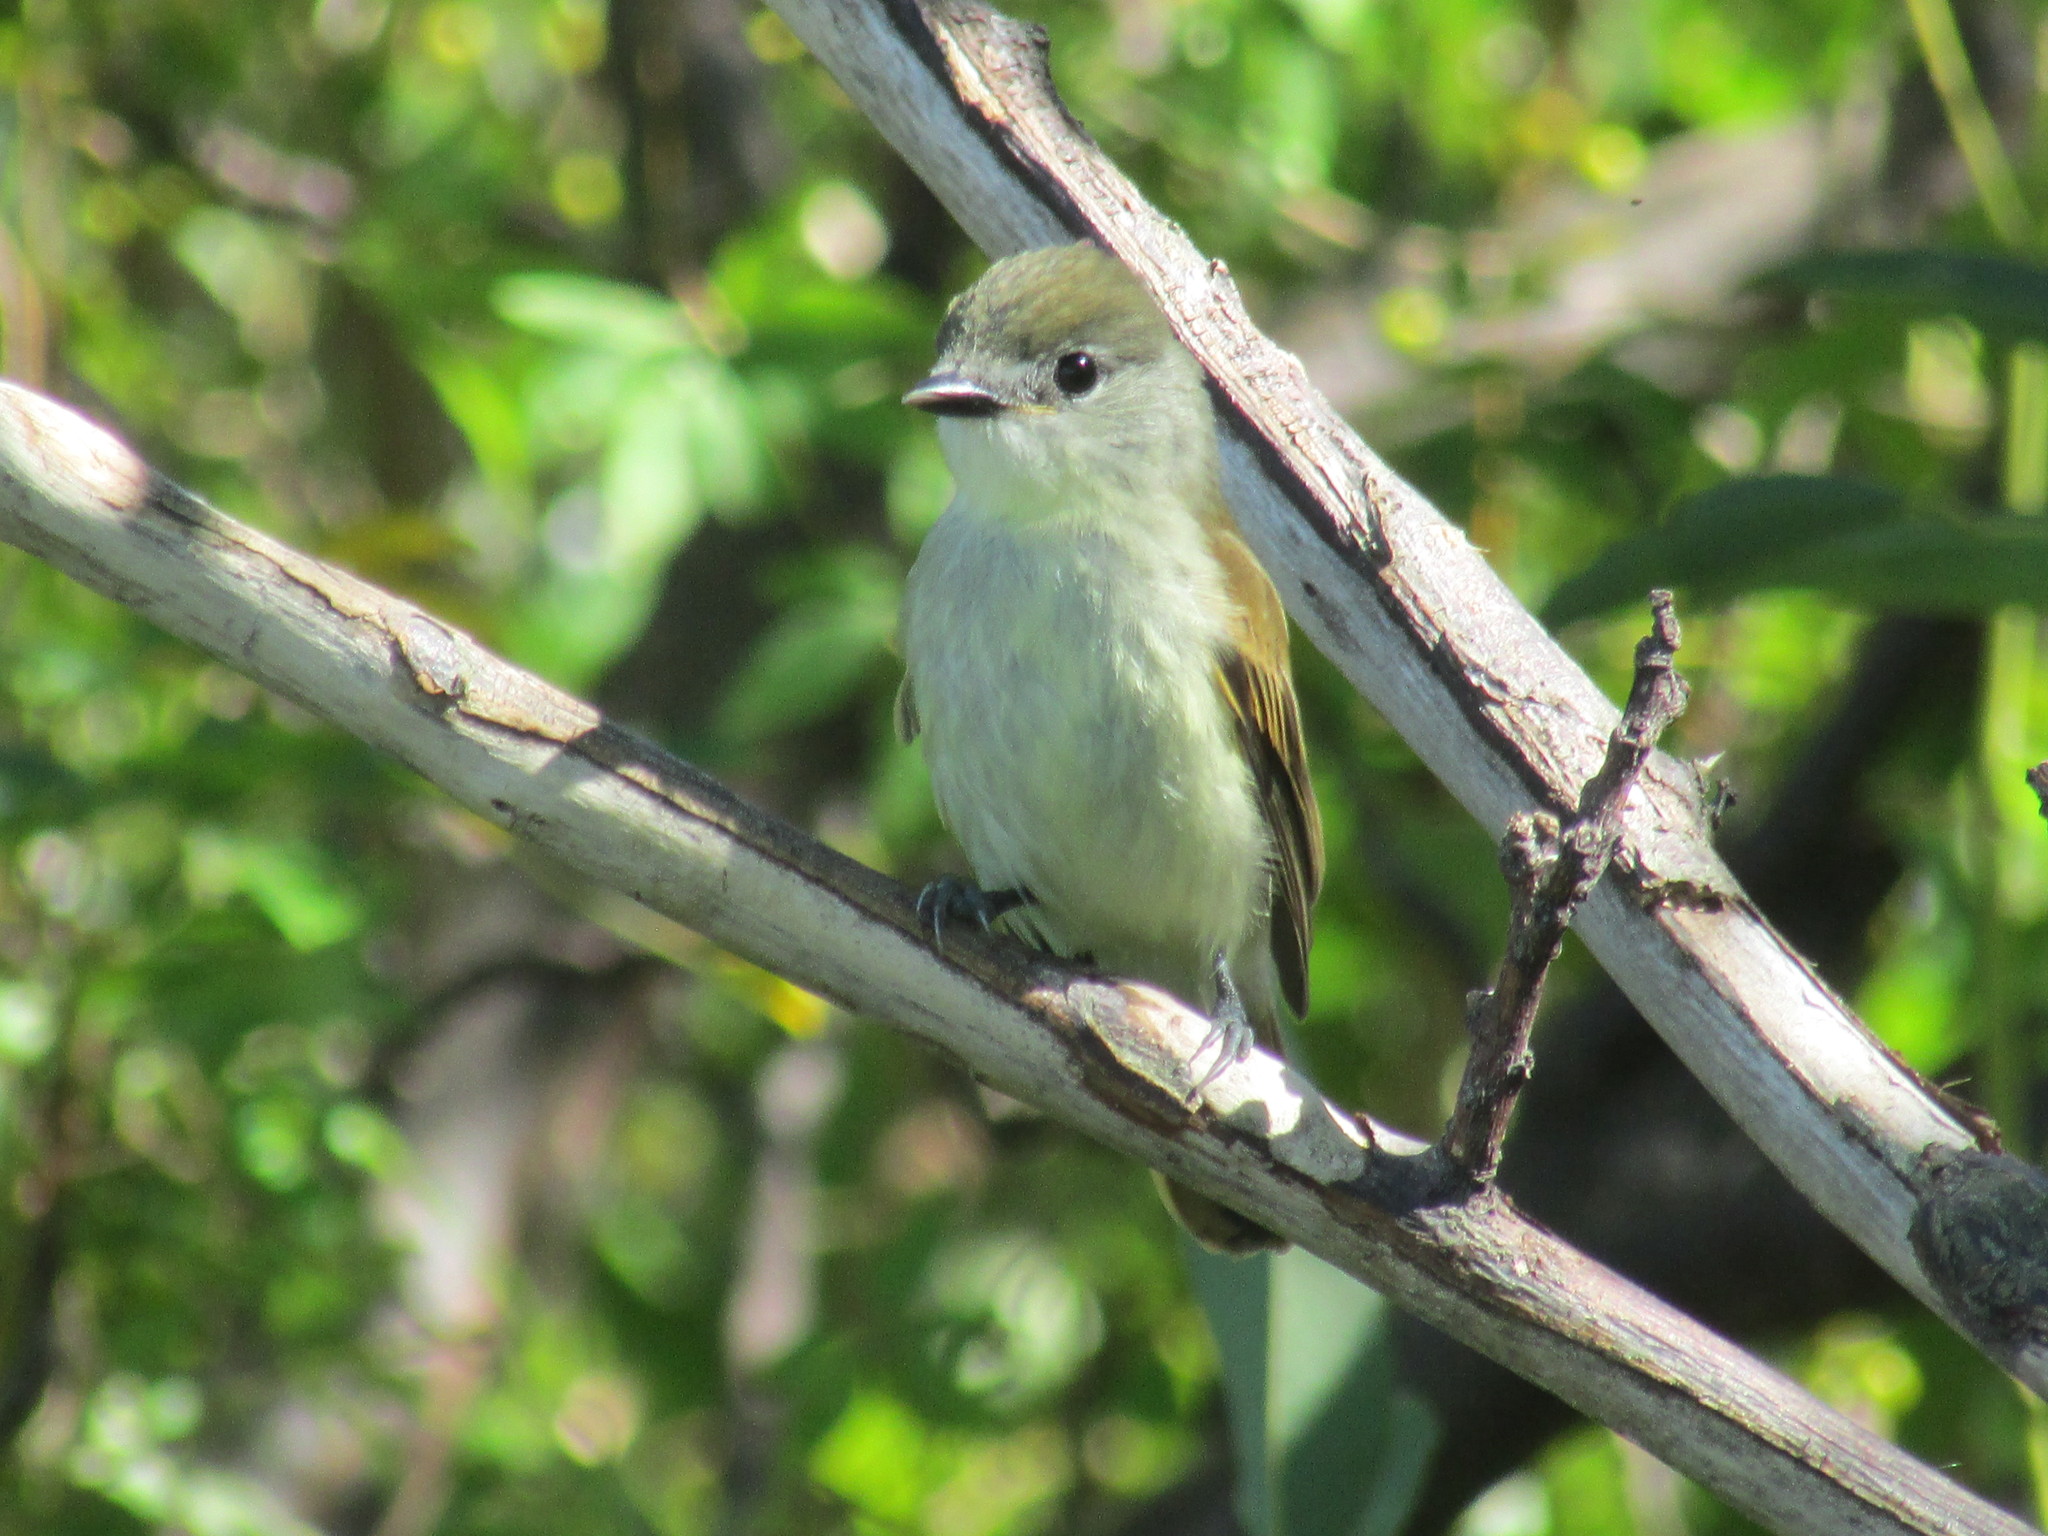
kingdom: Animalia
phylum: Chordata
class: Aves
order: Passeriformes
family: Cotingidae
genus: Pachyramphus
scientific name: Pachyramphus polychopterus
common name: White-winged becard
